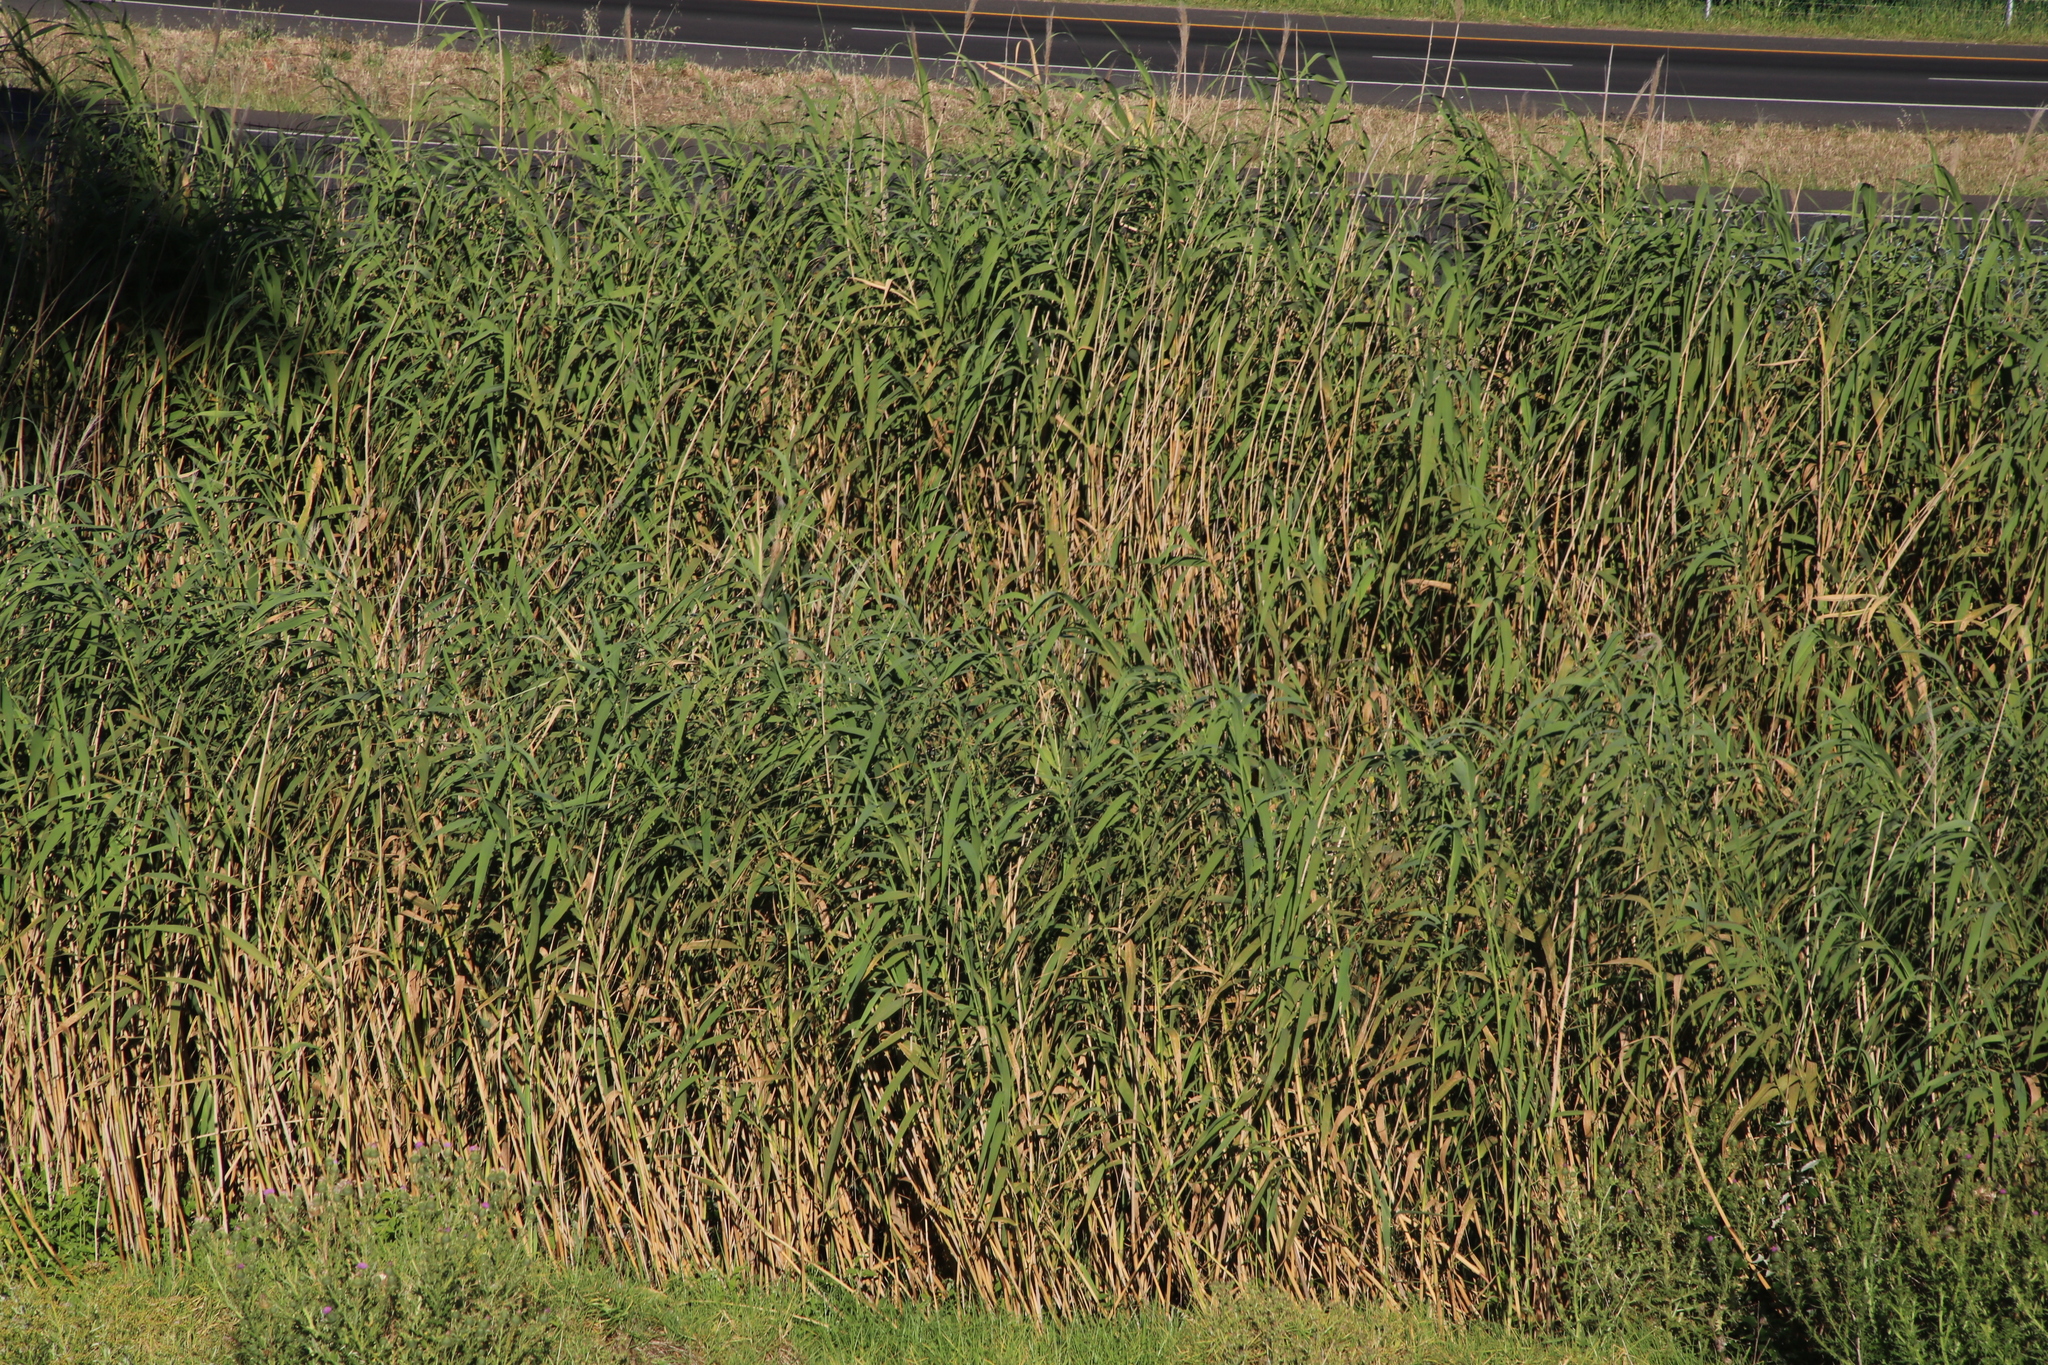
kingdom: Plantae
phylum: Tracheophyta
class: Liliopsida
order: Poales
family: Poaceae
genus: Phragmites
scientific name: Phragmites australis
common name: Common reed
